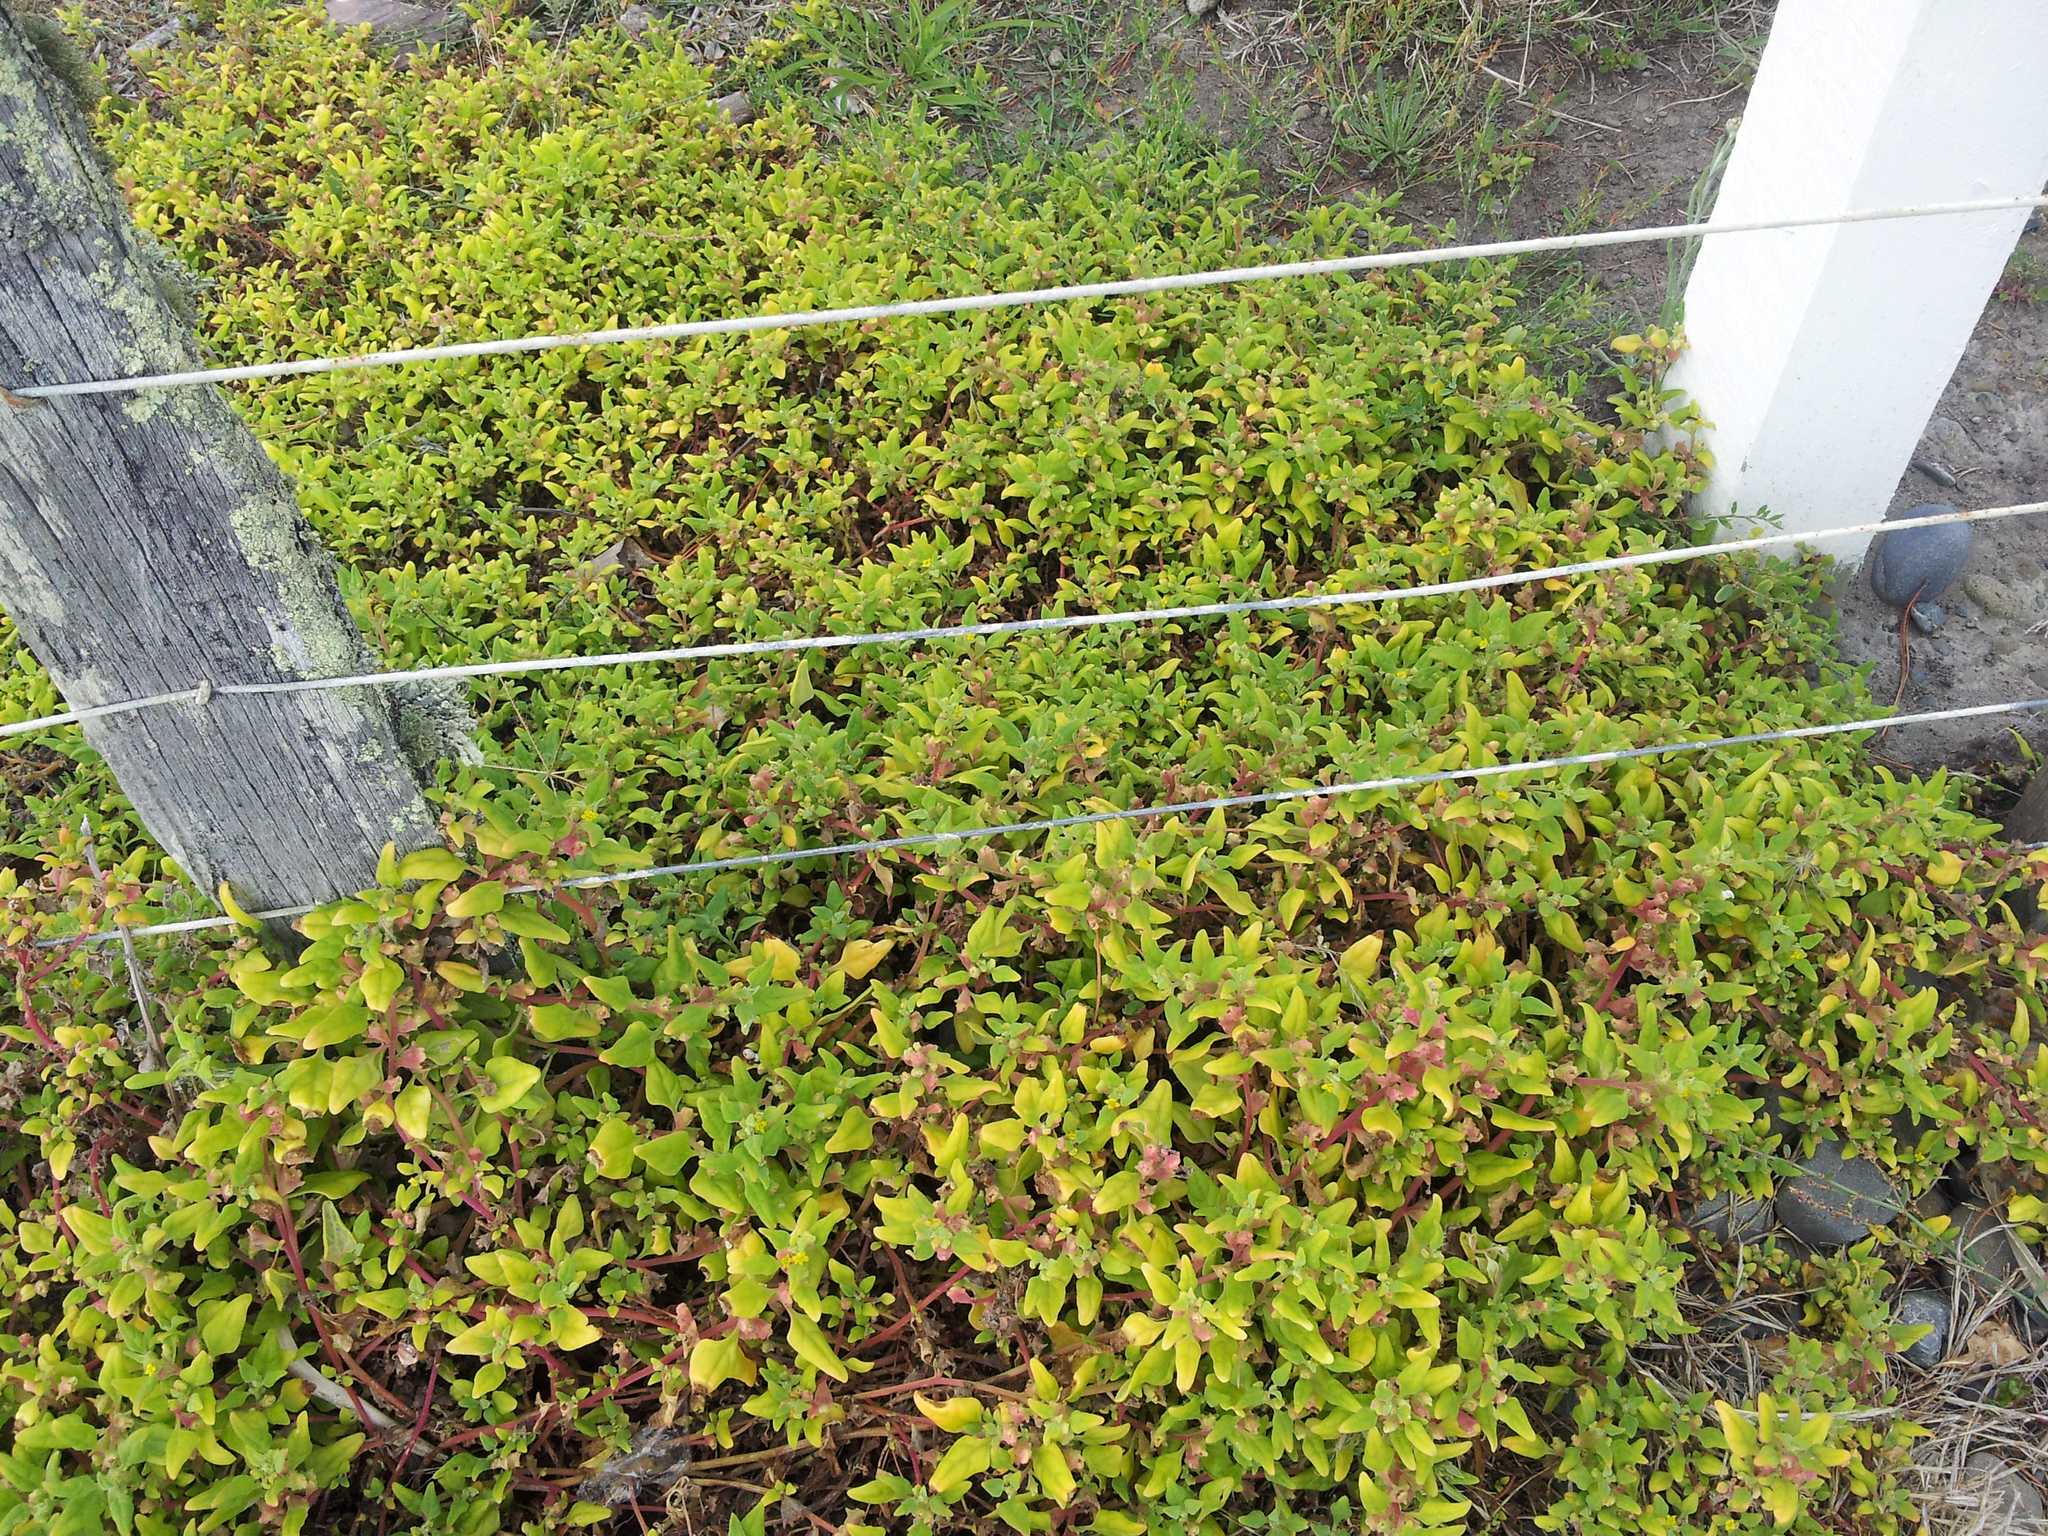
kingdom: Plantae
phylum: Tracheophyta
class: Magnoliopsida
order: Caryophyllales
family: Aizoaceae
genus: Tetragonia
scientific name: Tetragonia tetragonoides
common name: New zealand-spinach
